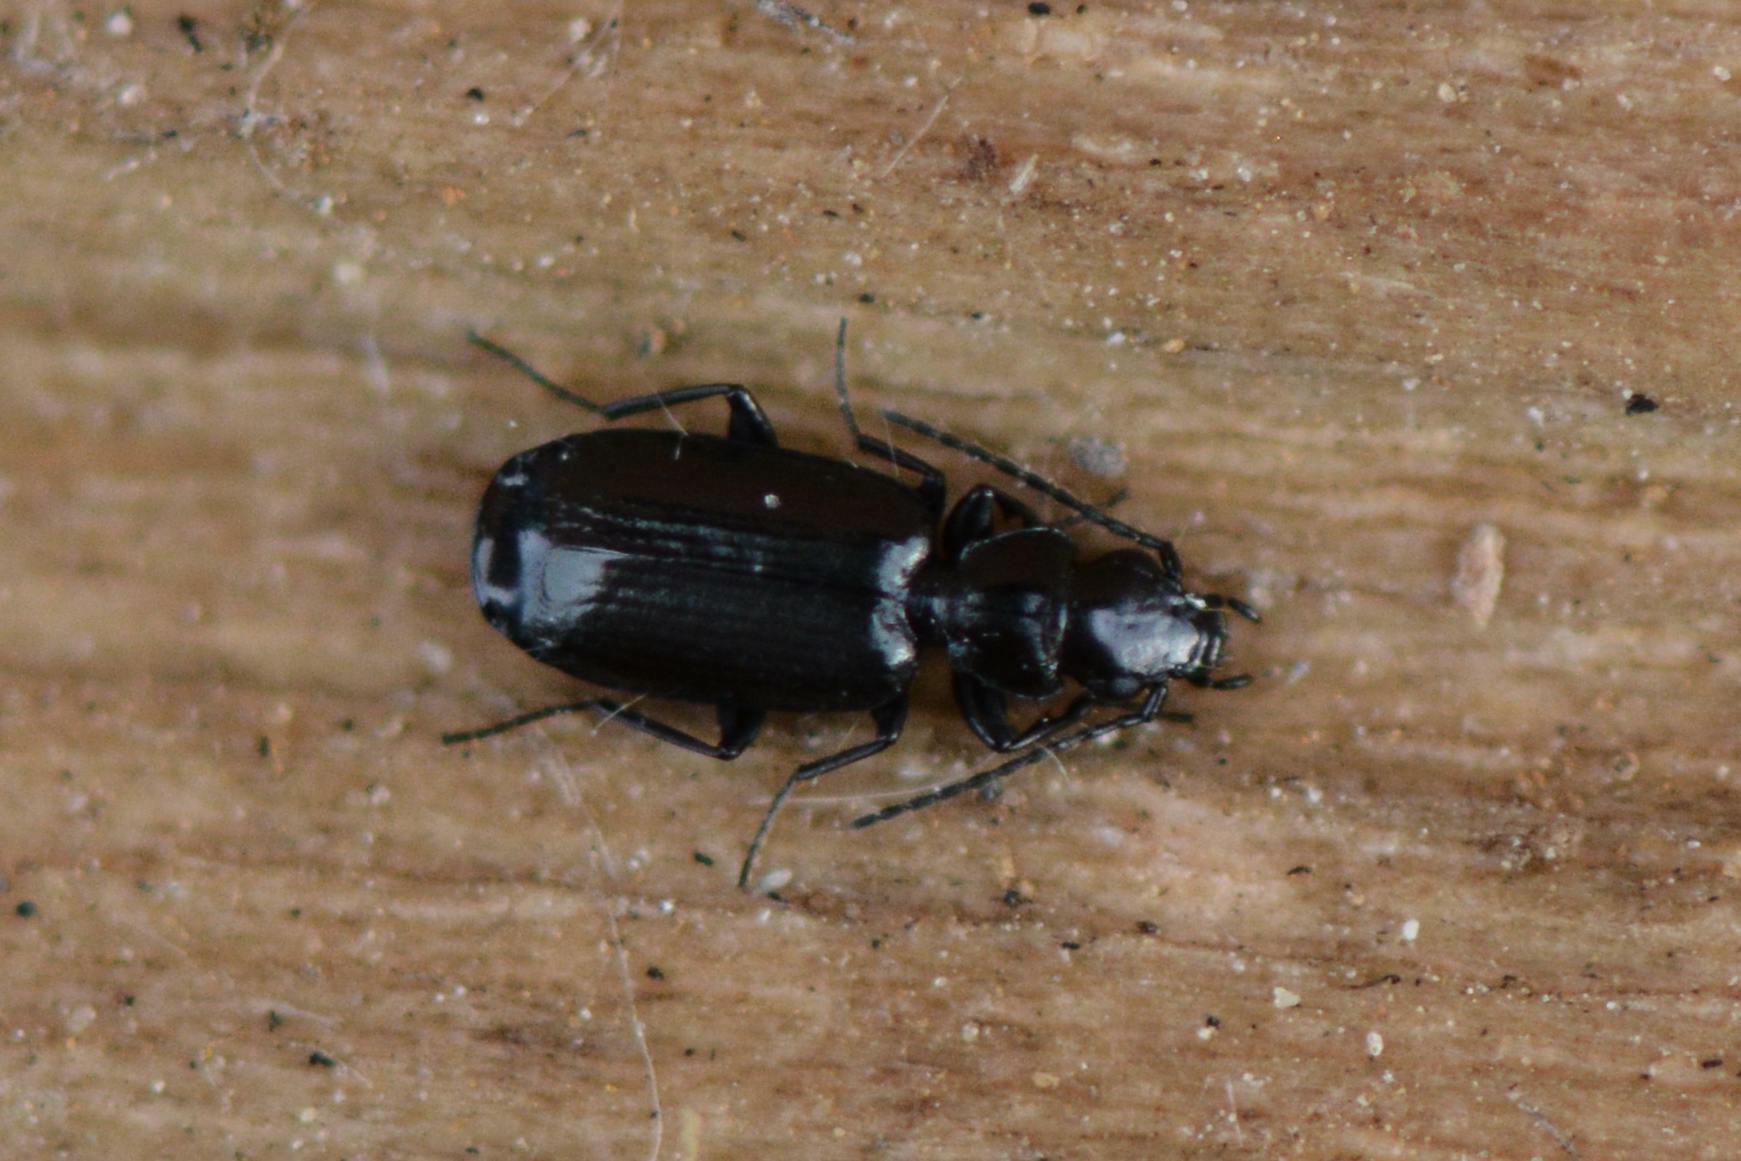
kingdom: Animalia
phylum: Arthropoda
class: Insecta
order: Coleoptera
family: Carabidae
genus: Microlestes
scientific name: Microlestes minutulus
